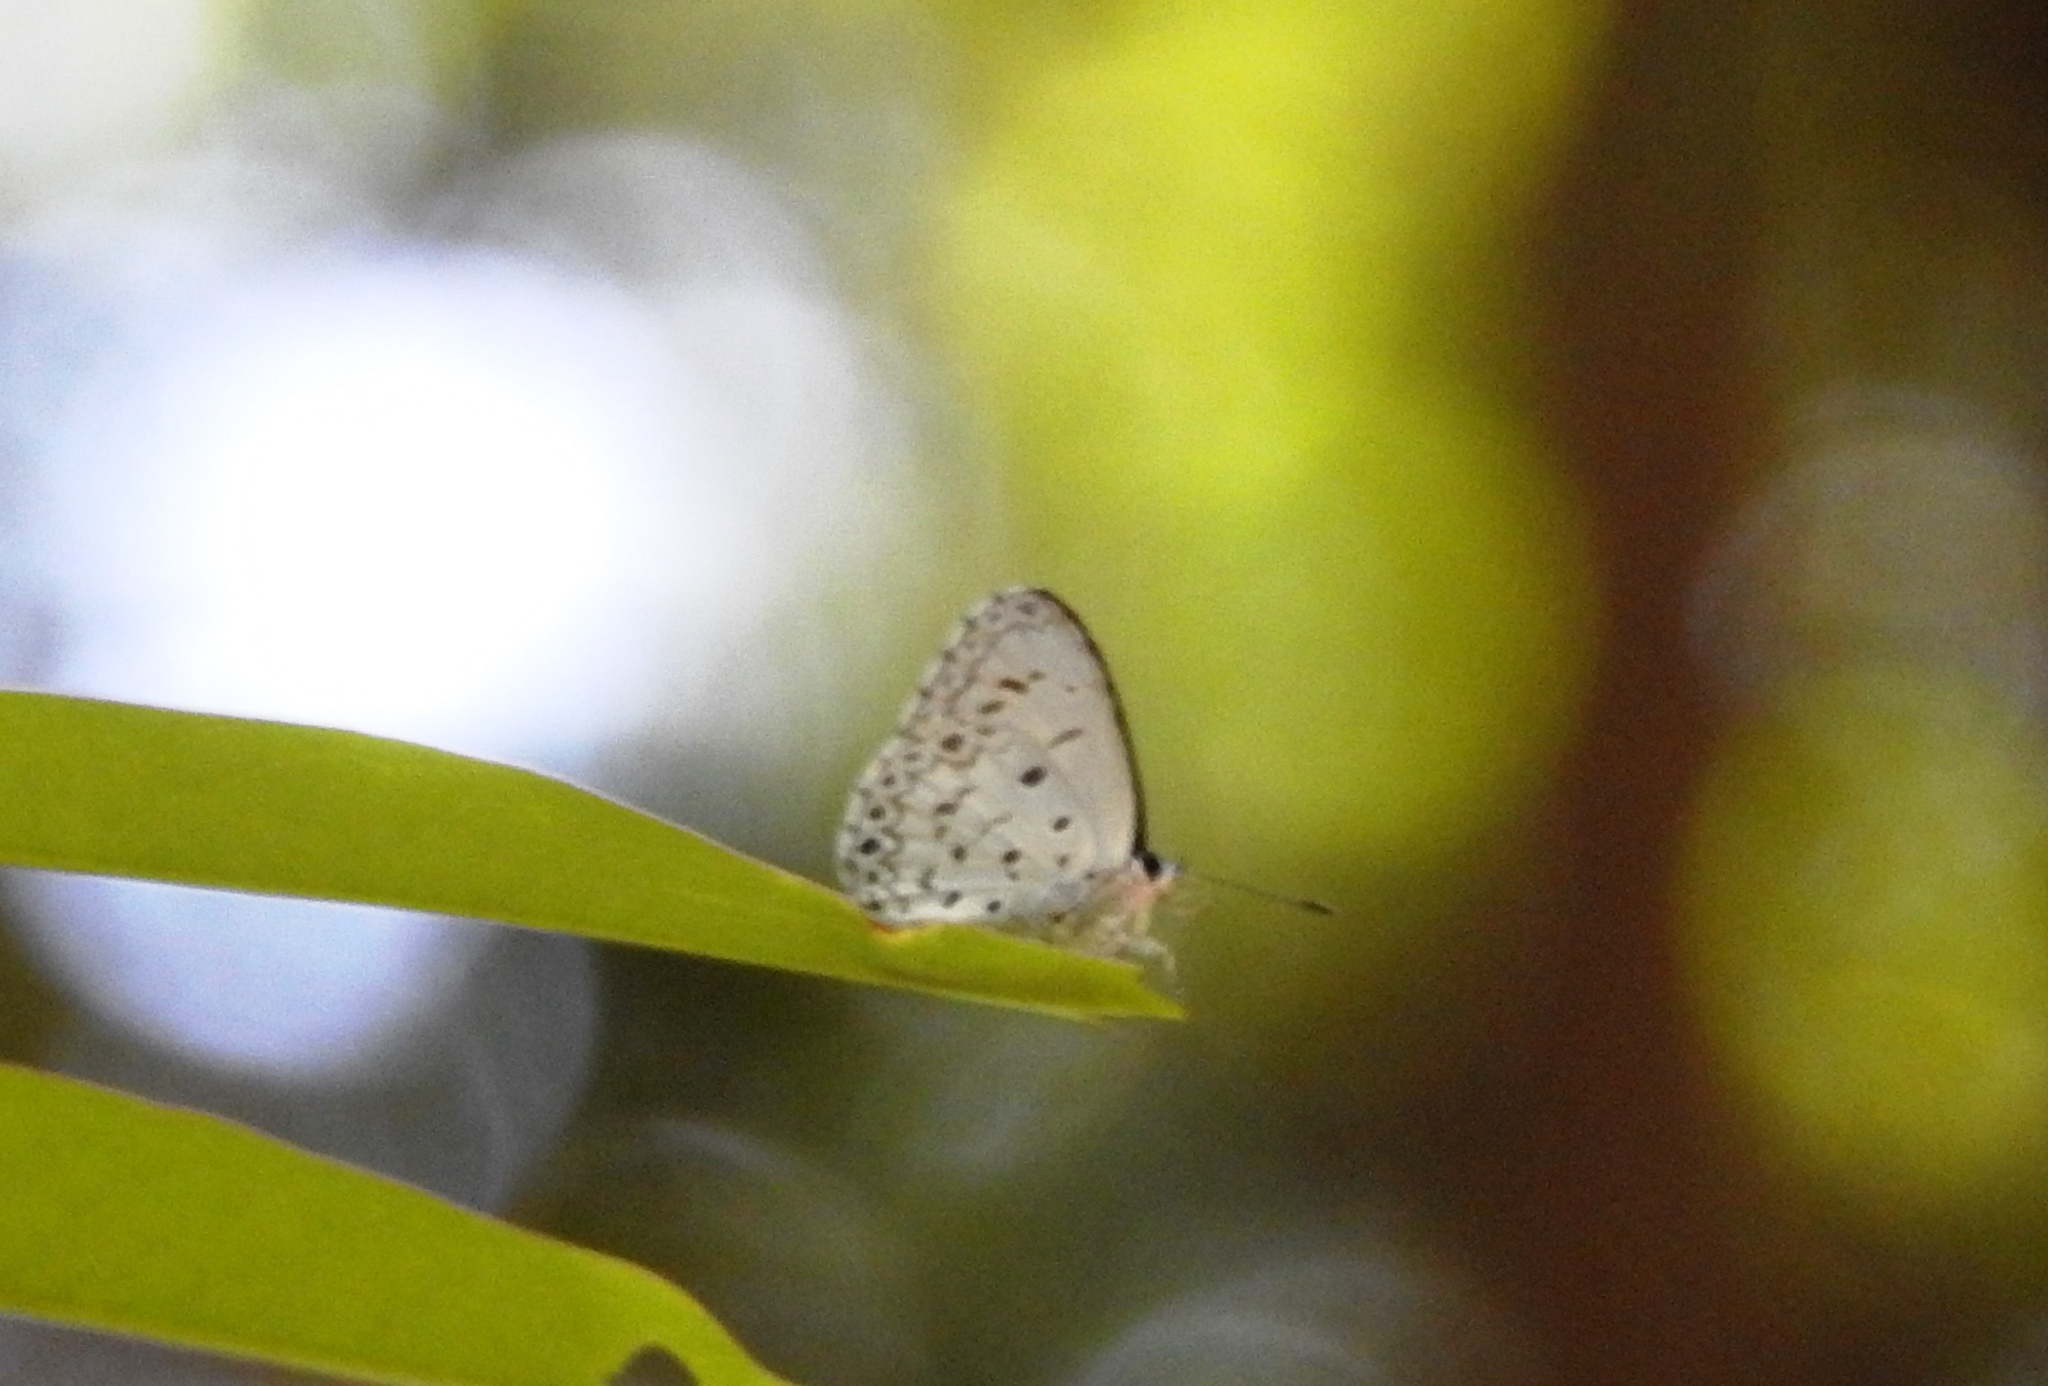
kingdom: Animalia
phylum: Arthropoda
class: Insecta
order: Lepidoptera
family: Lycaenidae
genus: Acytolepis
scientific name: Acytolepis puspa
